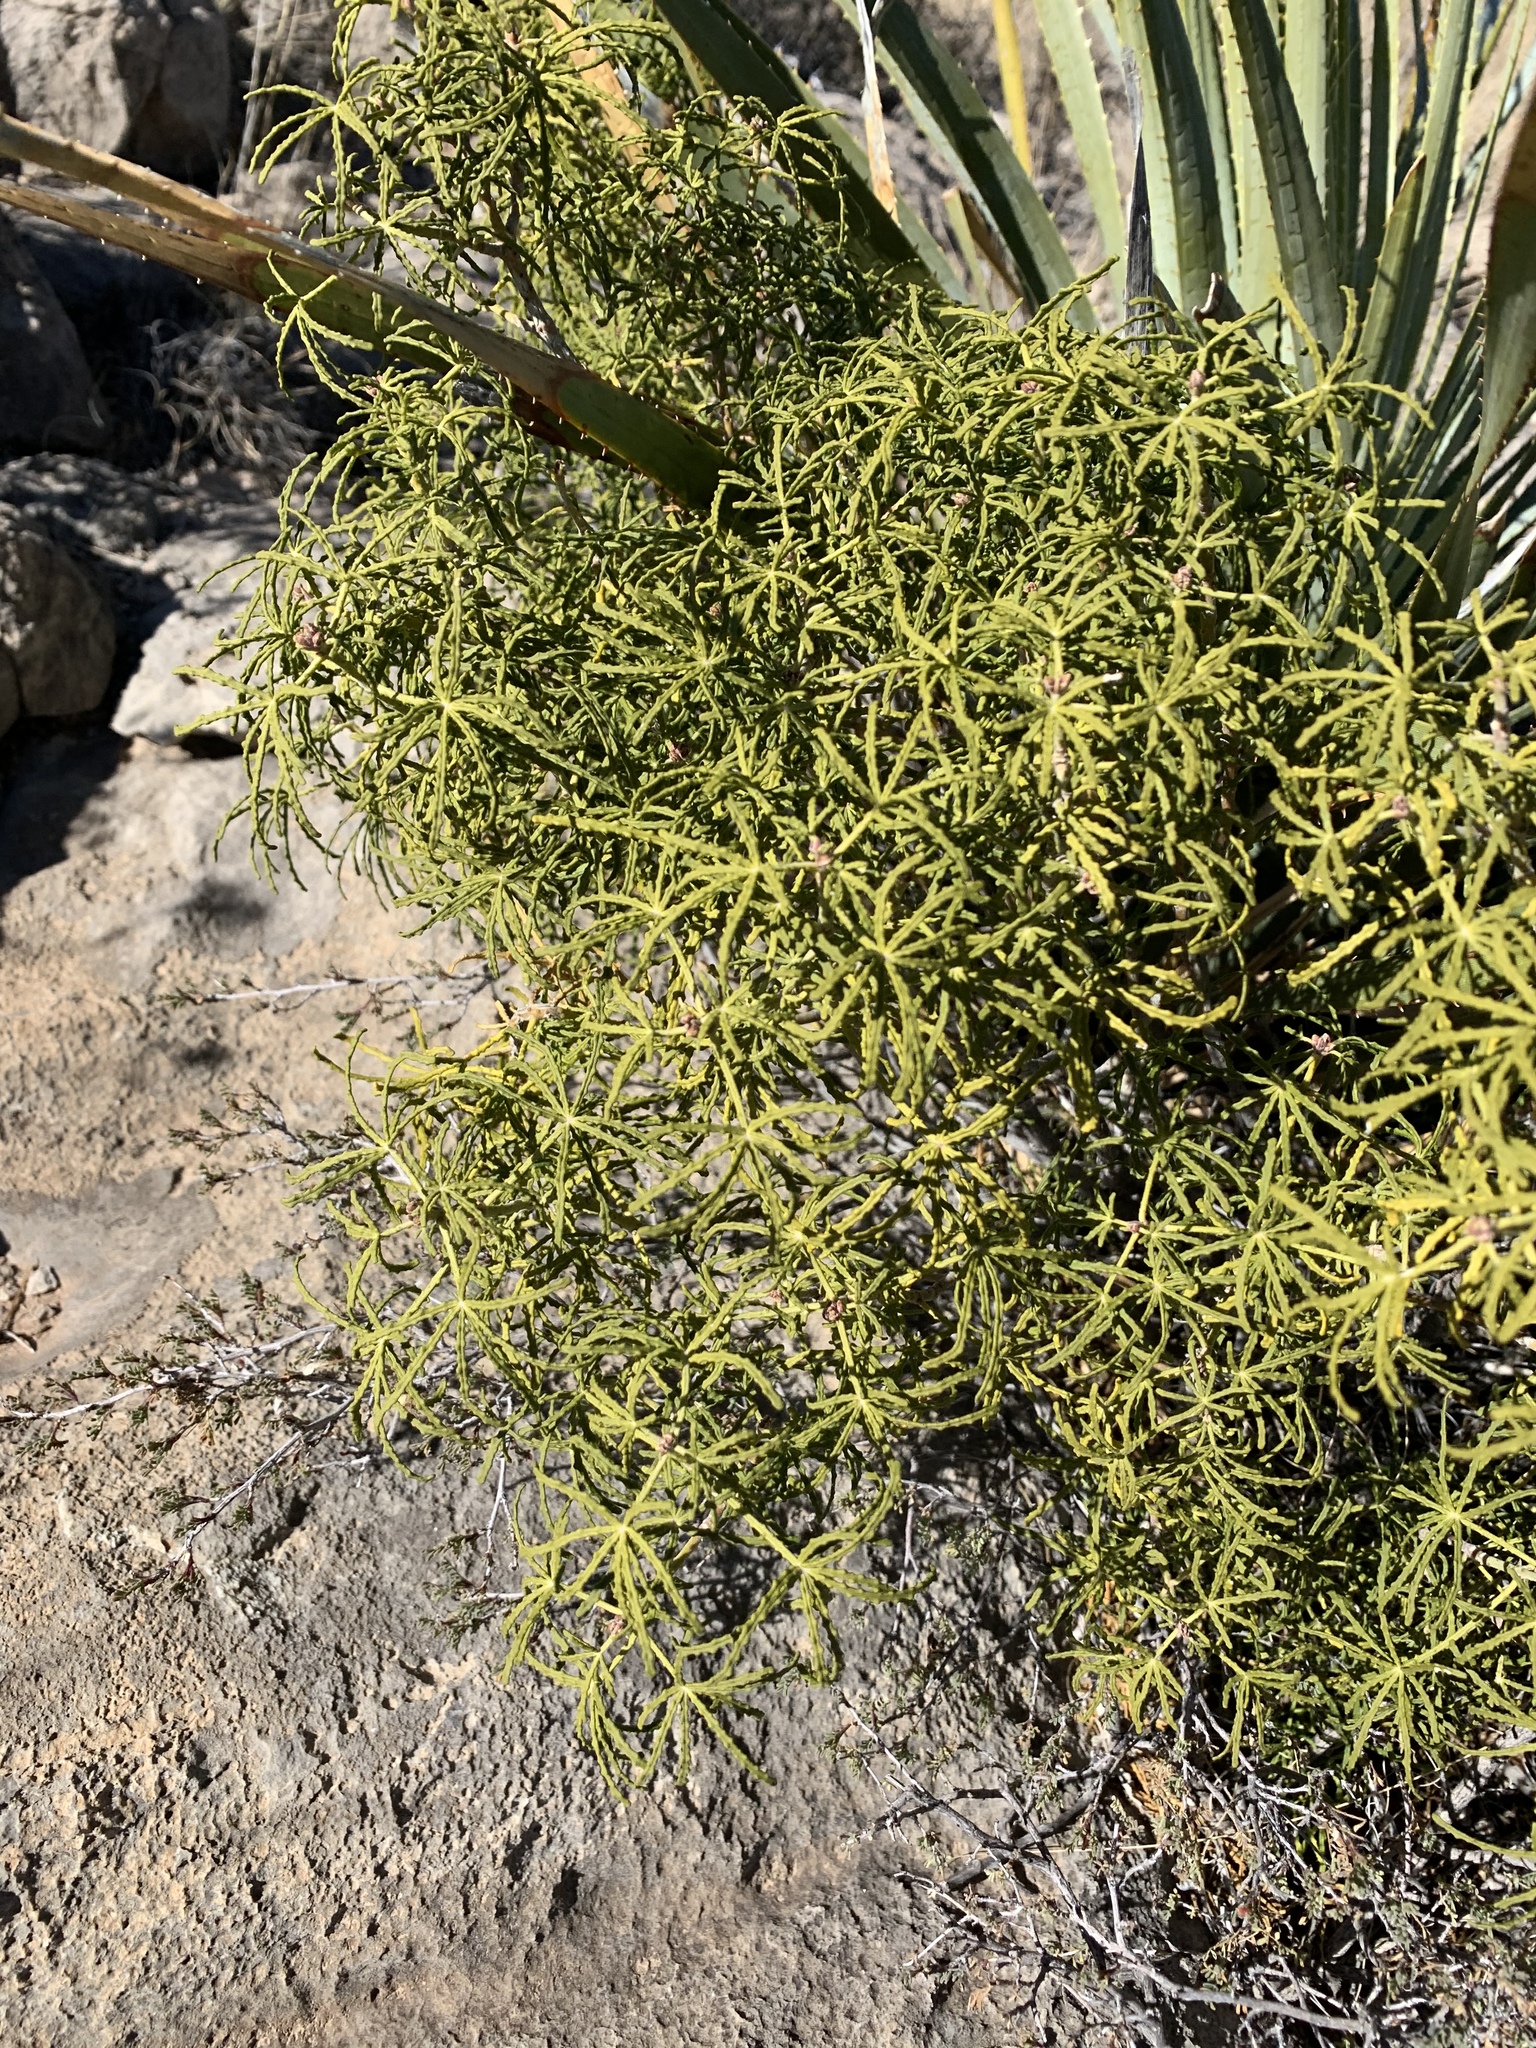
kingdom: Plantae
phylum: Tracheophyta
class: Magnoliopsida
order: Sapindales
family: Rutaceae
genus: Choisya
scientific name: Choisya dumosa
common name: Mexican-orange
